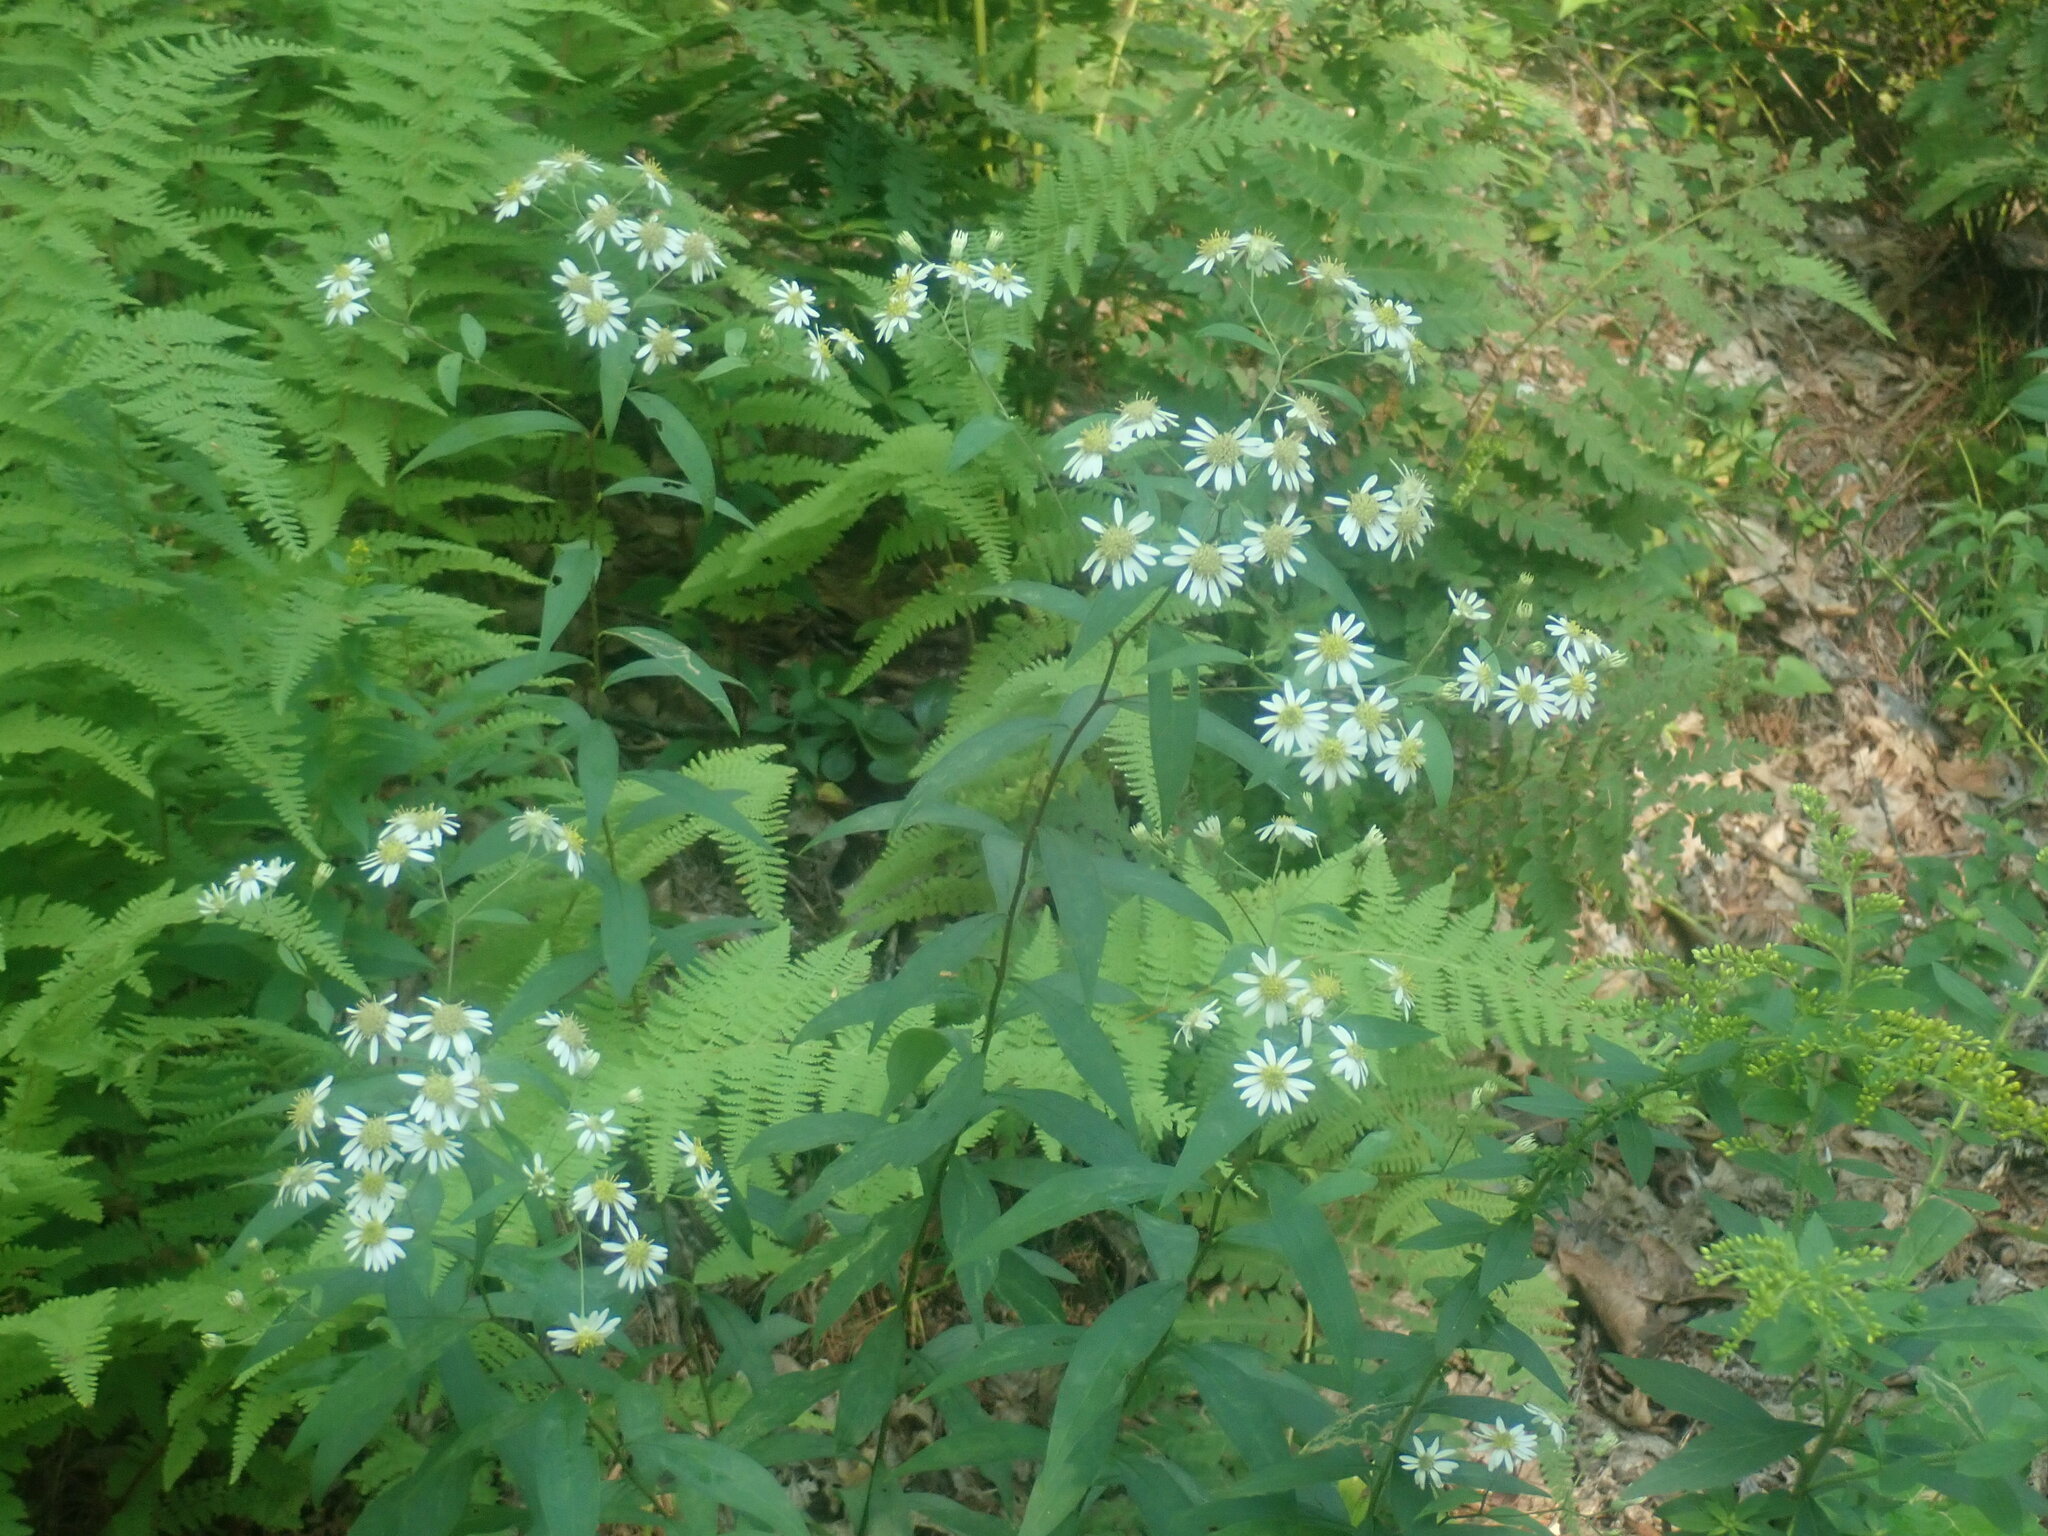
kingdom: Plantae
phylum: Tracheophyta
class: Magnoliopsida
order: Asterales
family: Asteraceae
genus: Doellingeria
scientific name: Doellingeria umbellata
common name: Flat-top white aster
